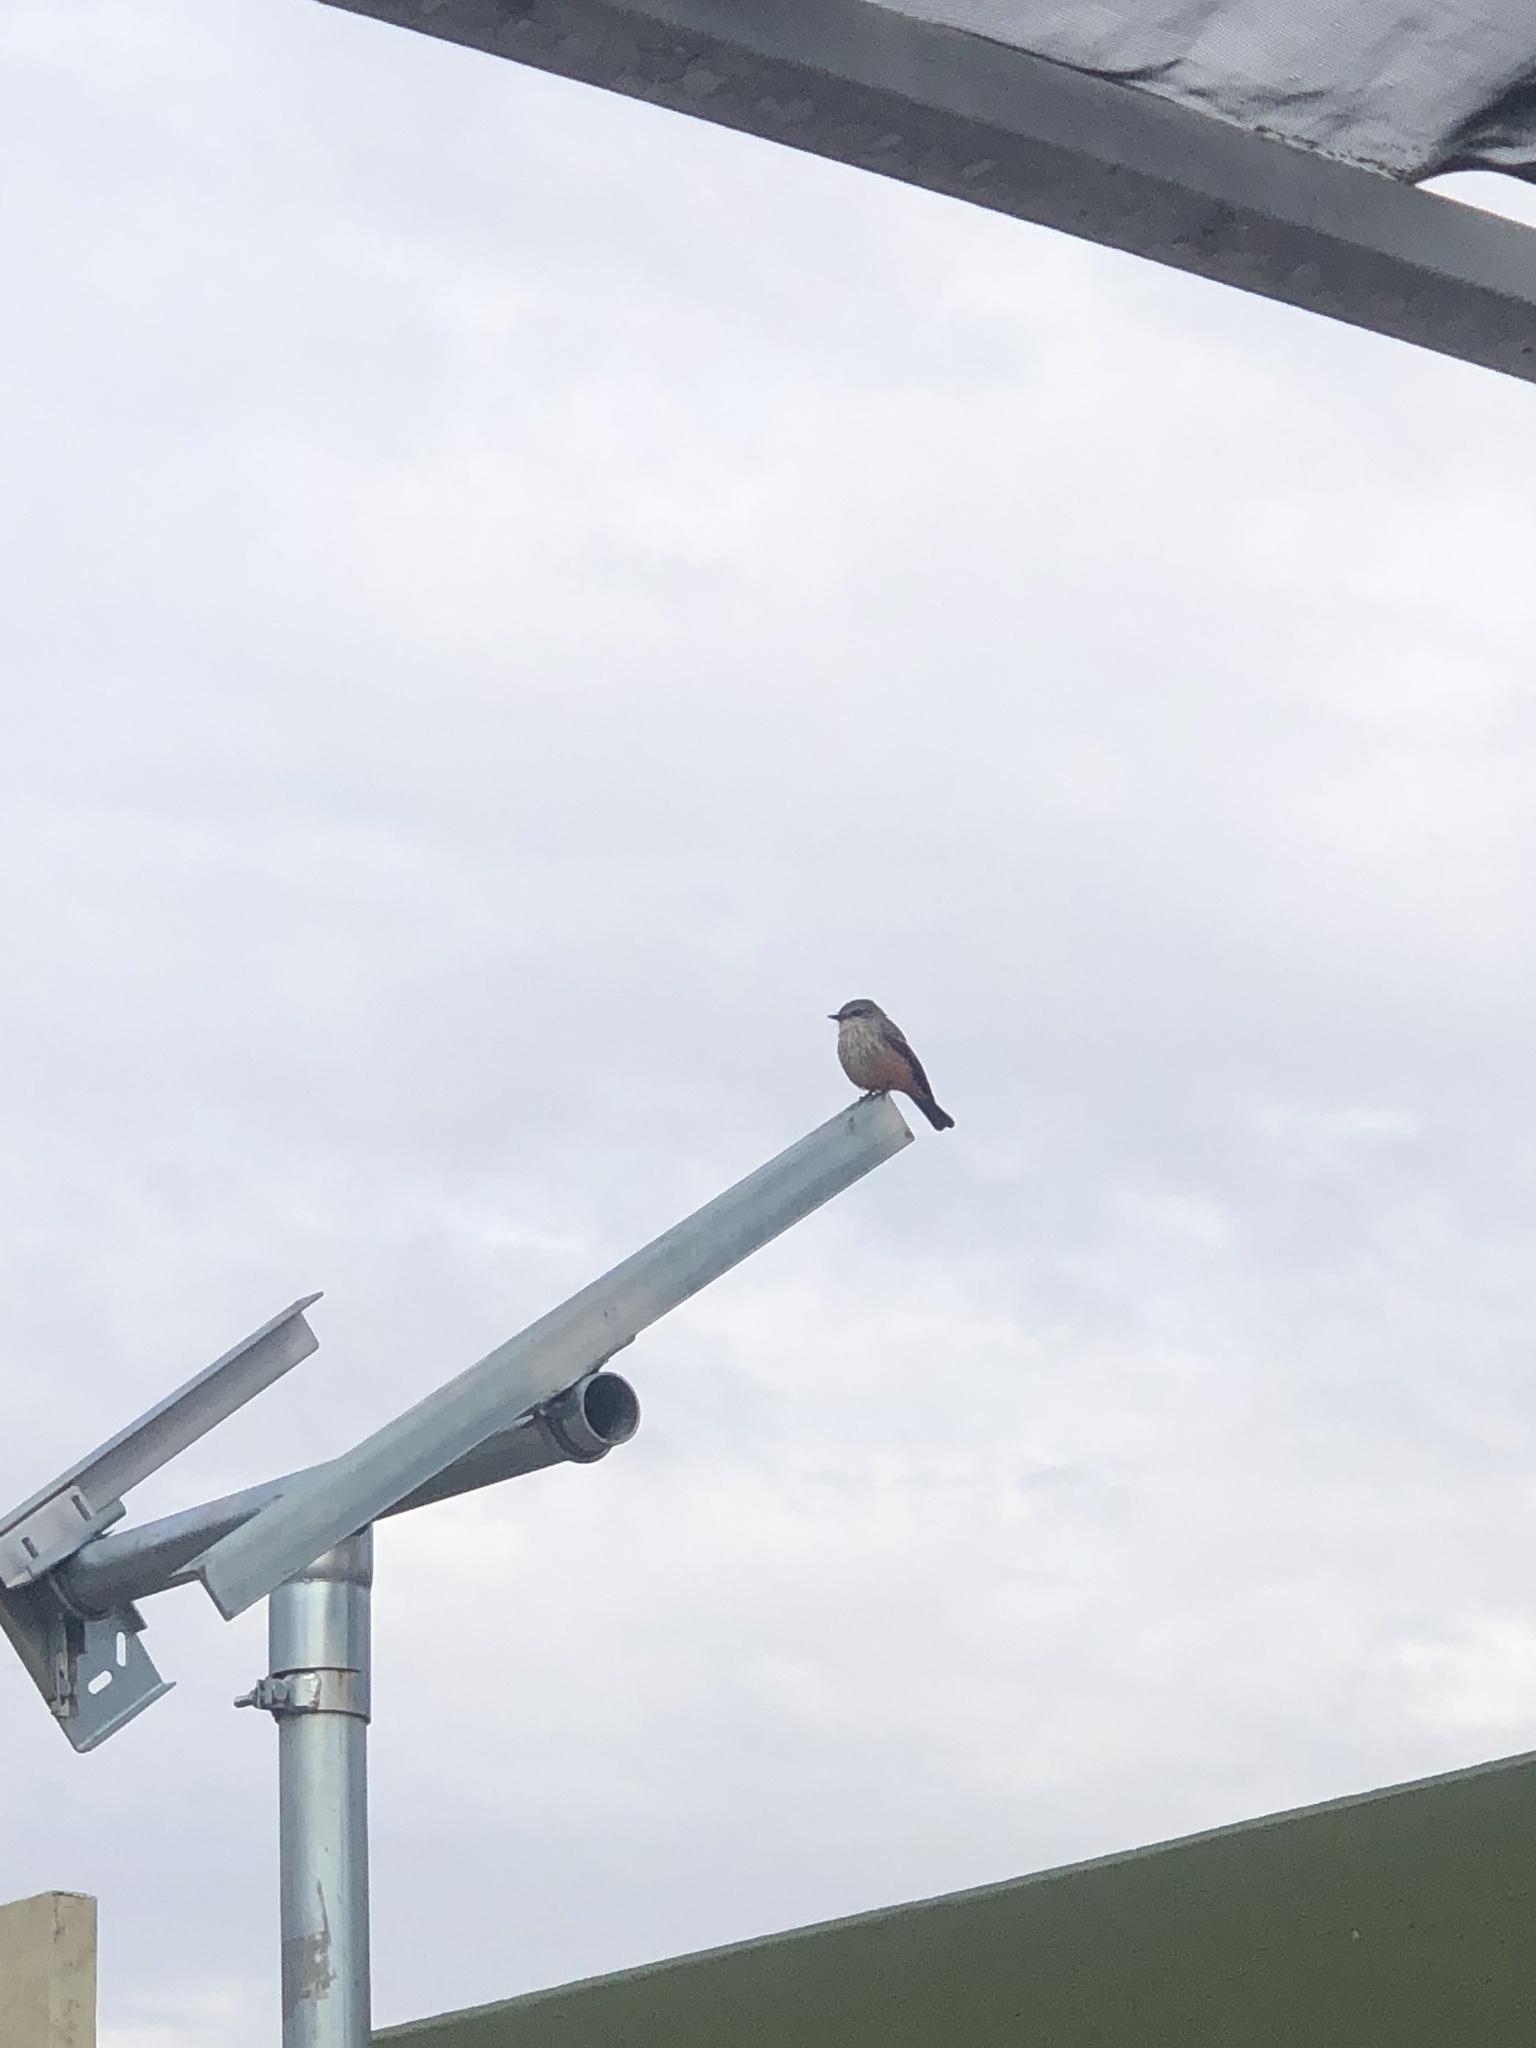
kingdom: Animalia
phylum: Chordata
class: Aves
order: Passeriformes
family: Tyrannidae
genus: Pyrocephalus
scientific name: Pyrocephalus rubinus
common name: Vermilion flycatcher
